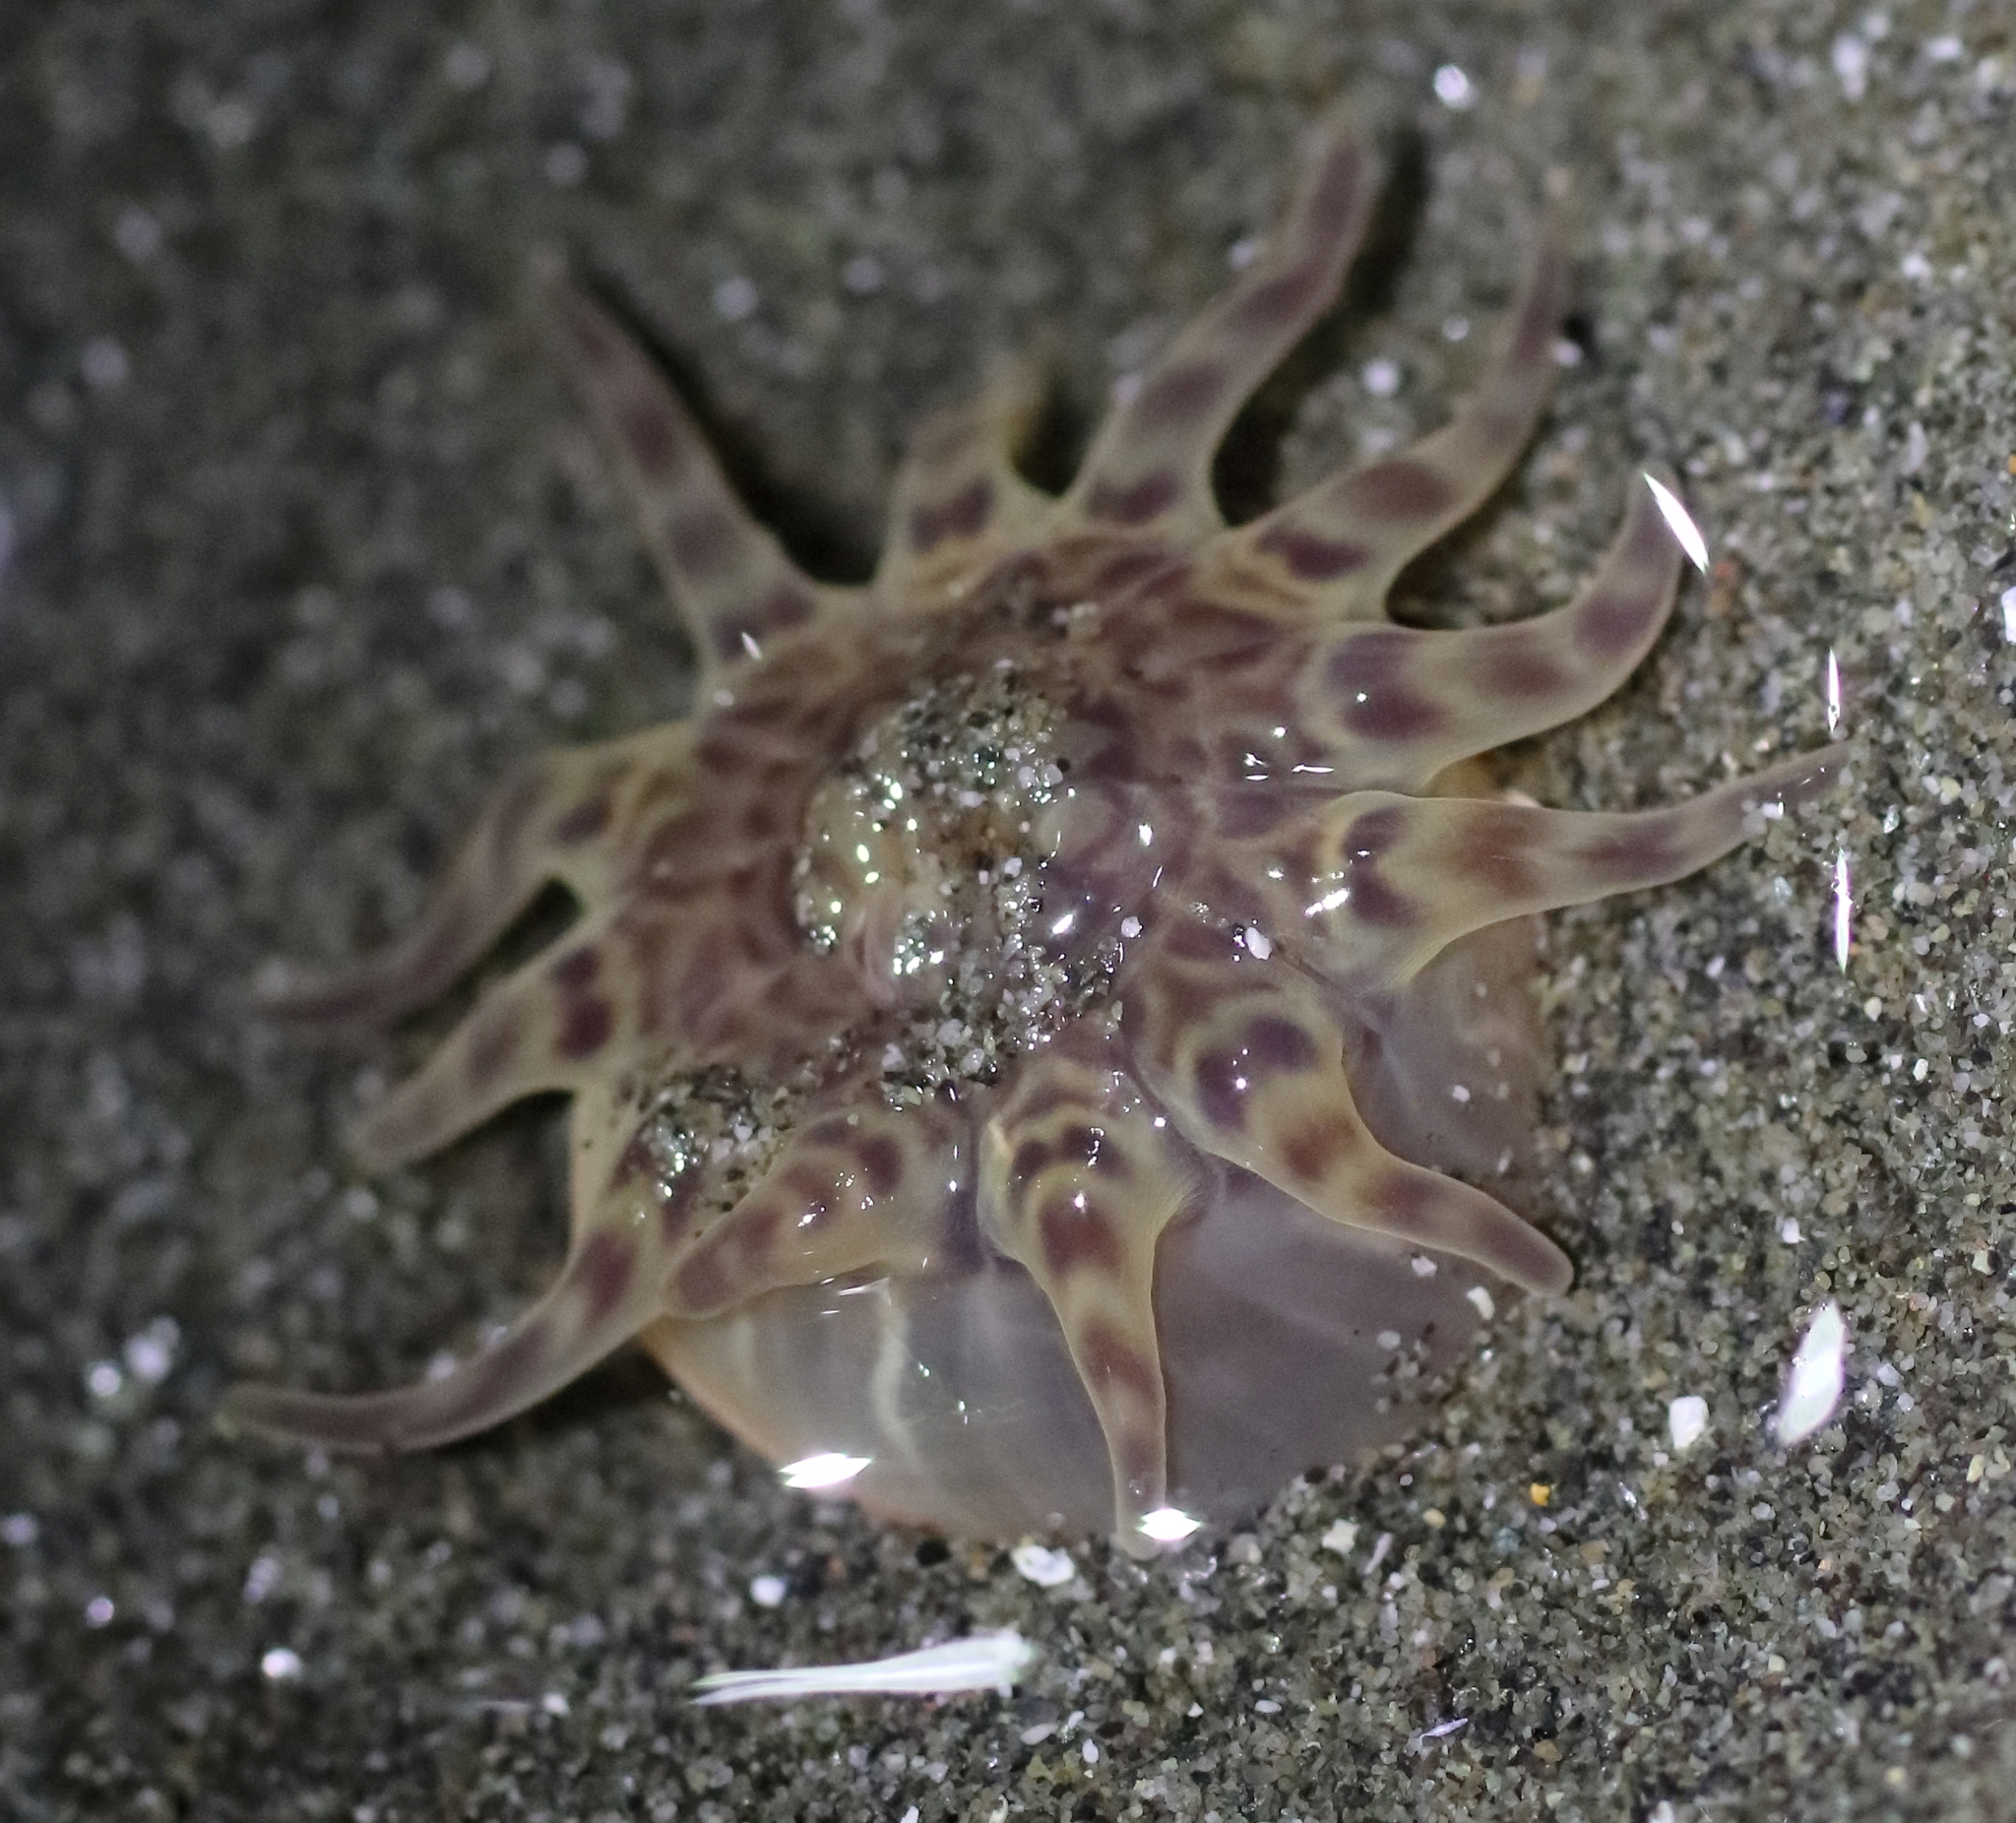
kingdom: Animalia
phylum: Cnidaria
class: Anthozoa
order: Actiniaria
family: Peachiidae
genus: Peachia
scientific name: Peachia quinquecapitata
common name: Twelve-tentacled parasitic anemone
